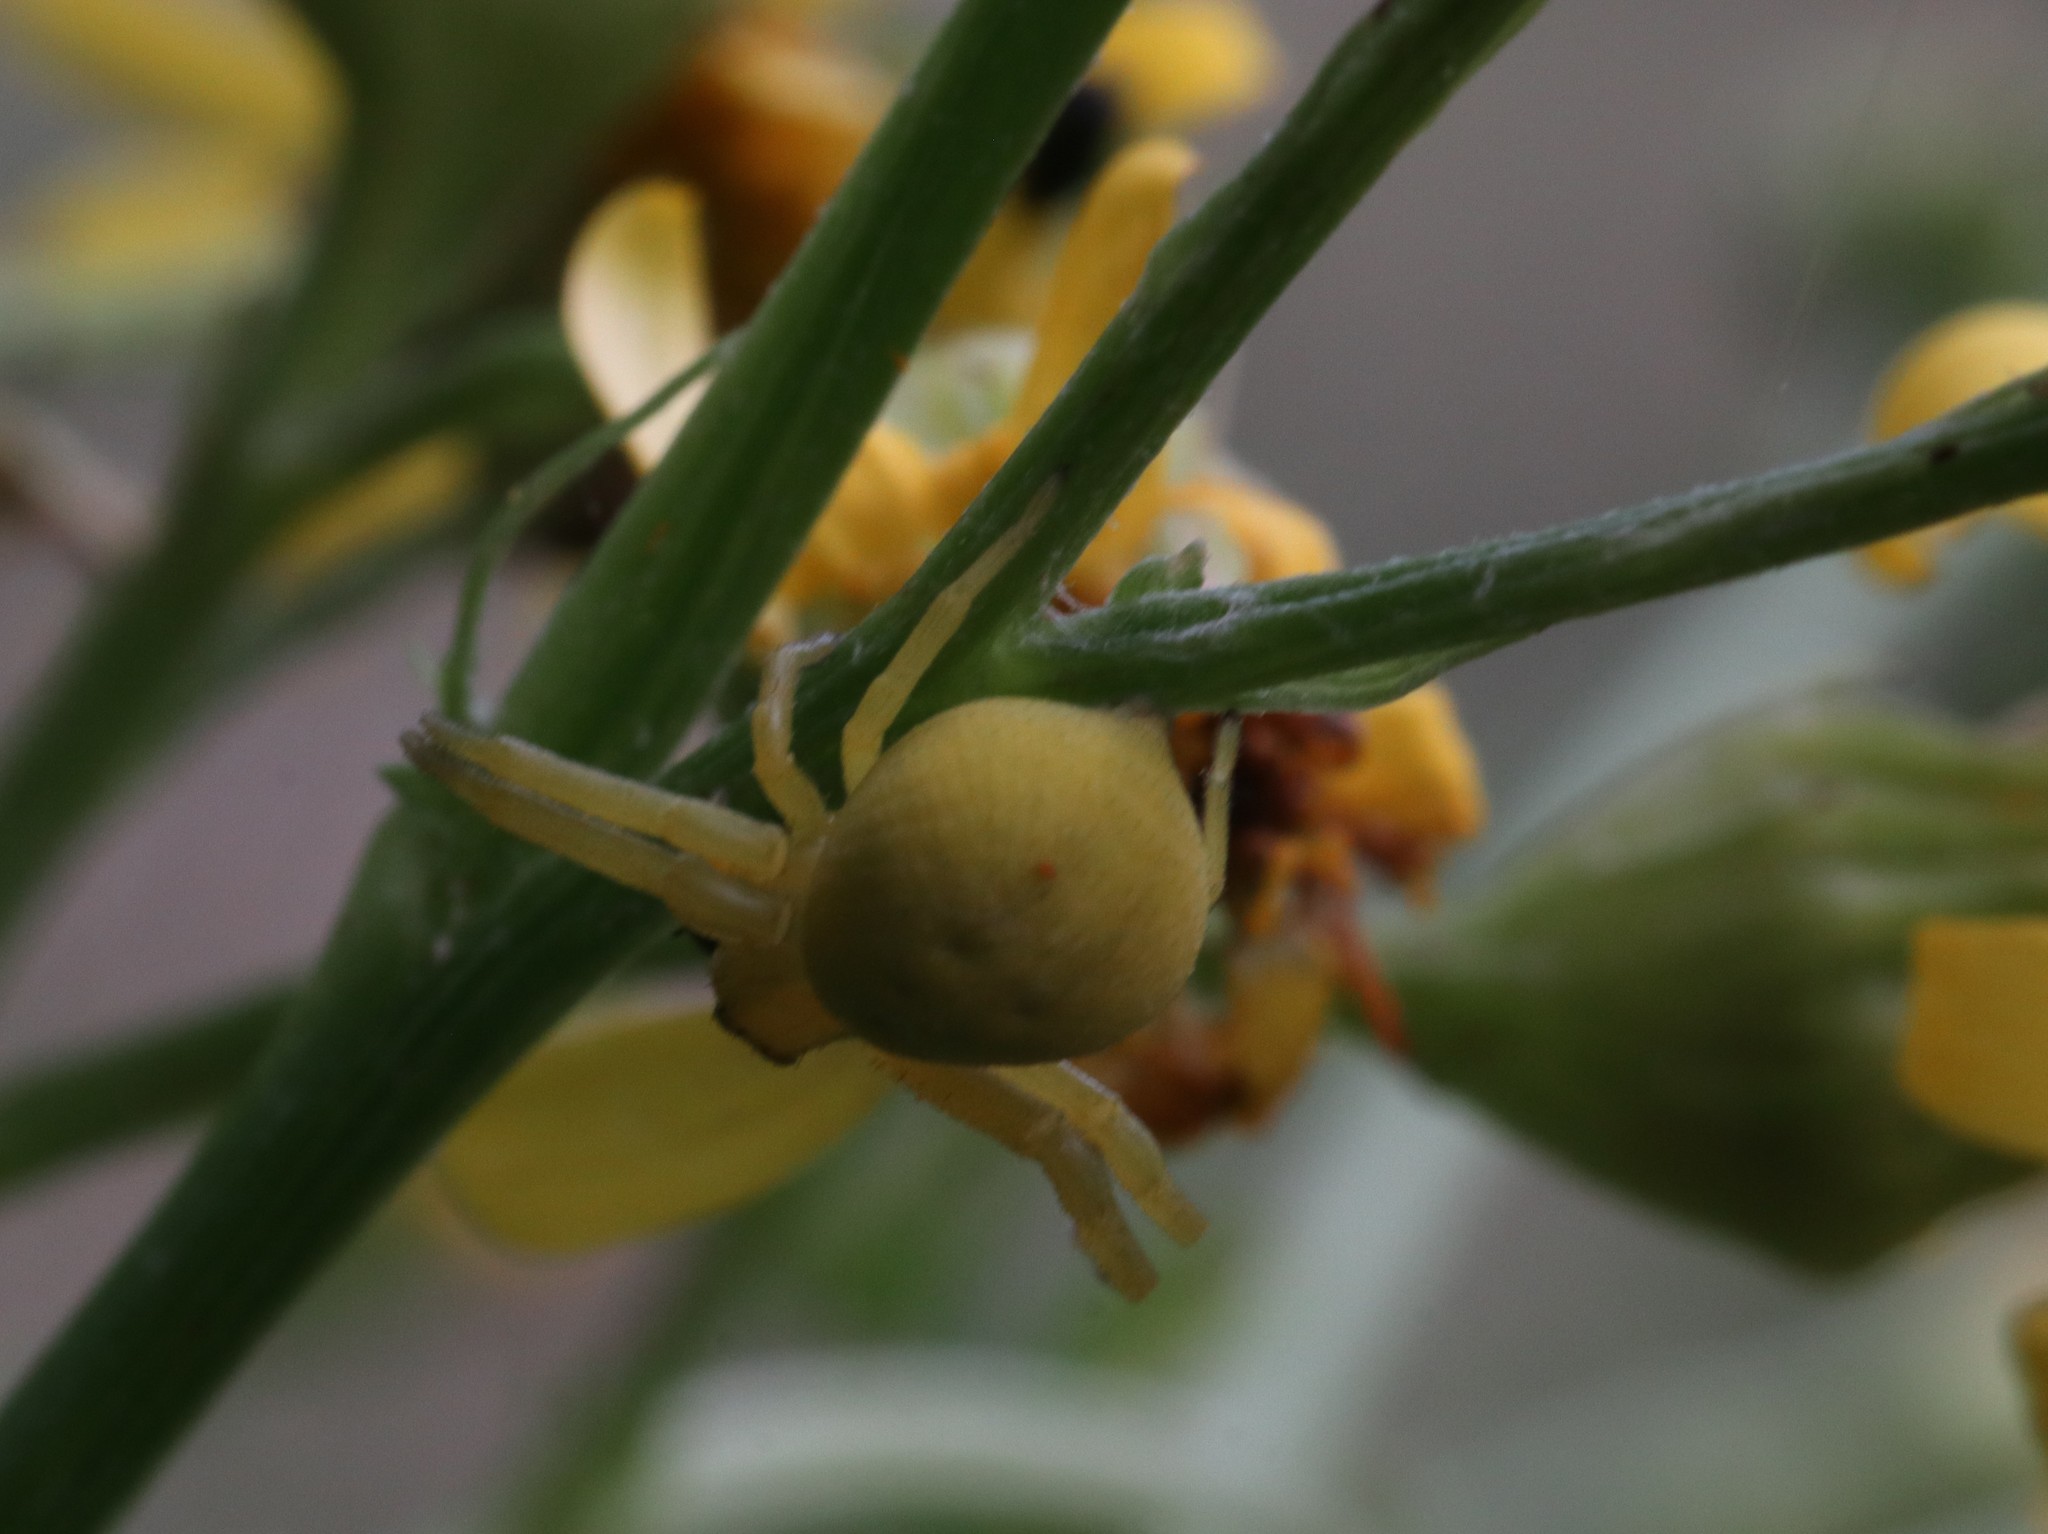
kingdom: Animalia
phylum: Arthropoda
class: Arachnida
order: Araneae
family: Thomisidae
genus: Misumena
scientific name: Misumena vatia
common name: Goldenrod crab spider
